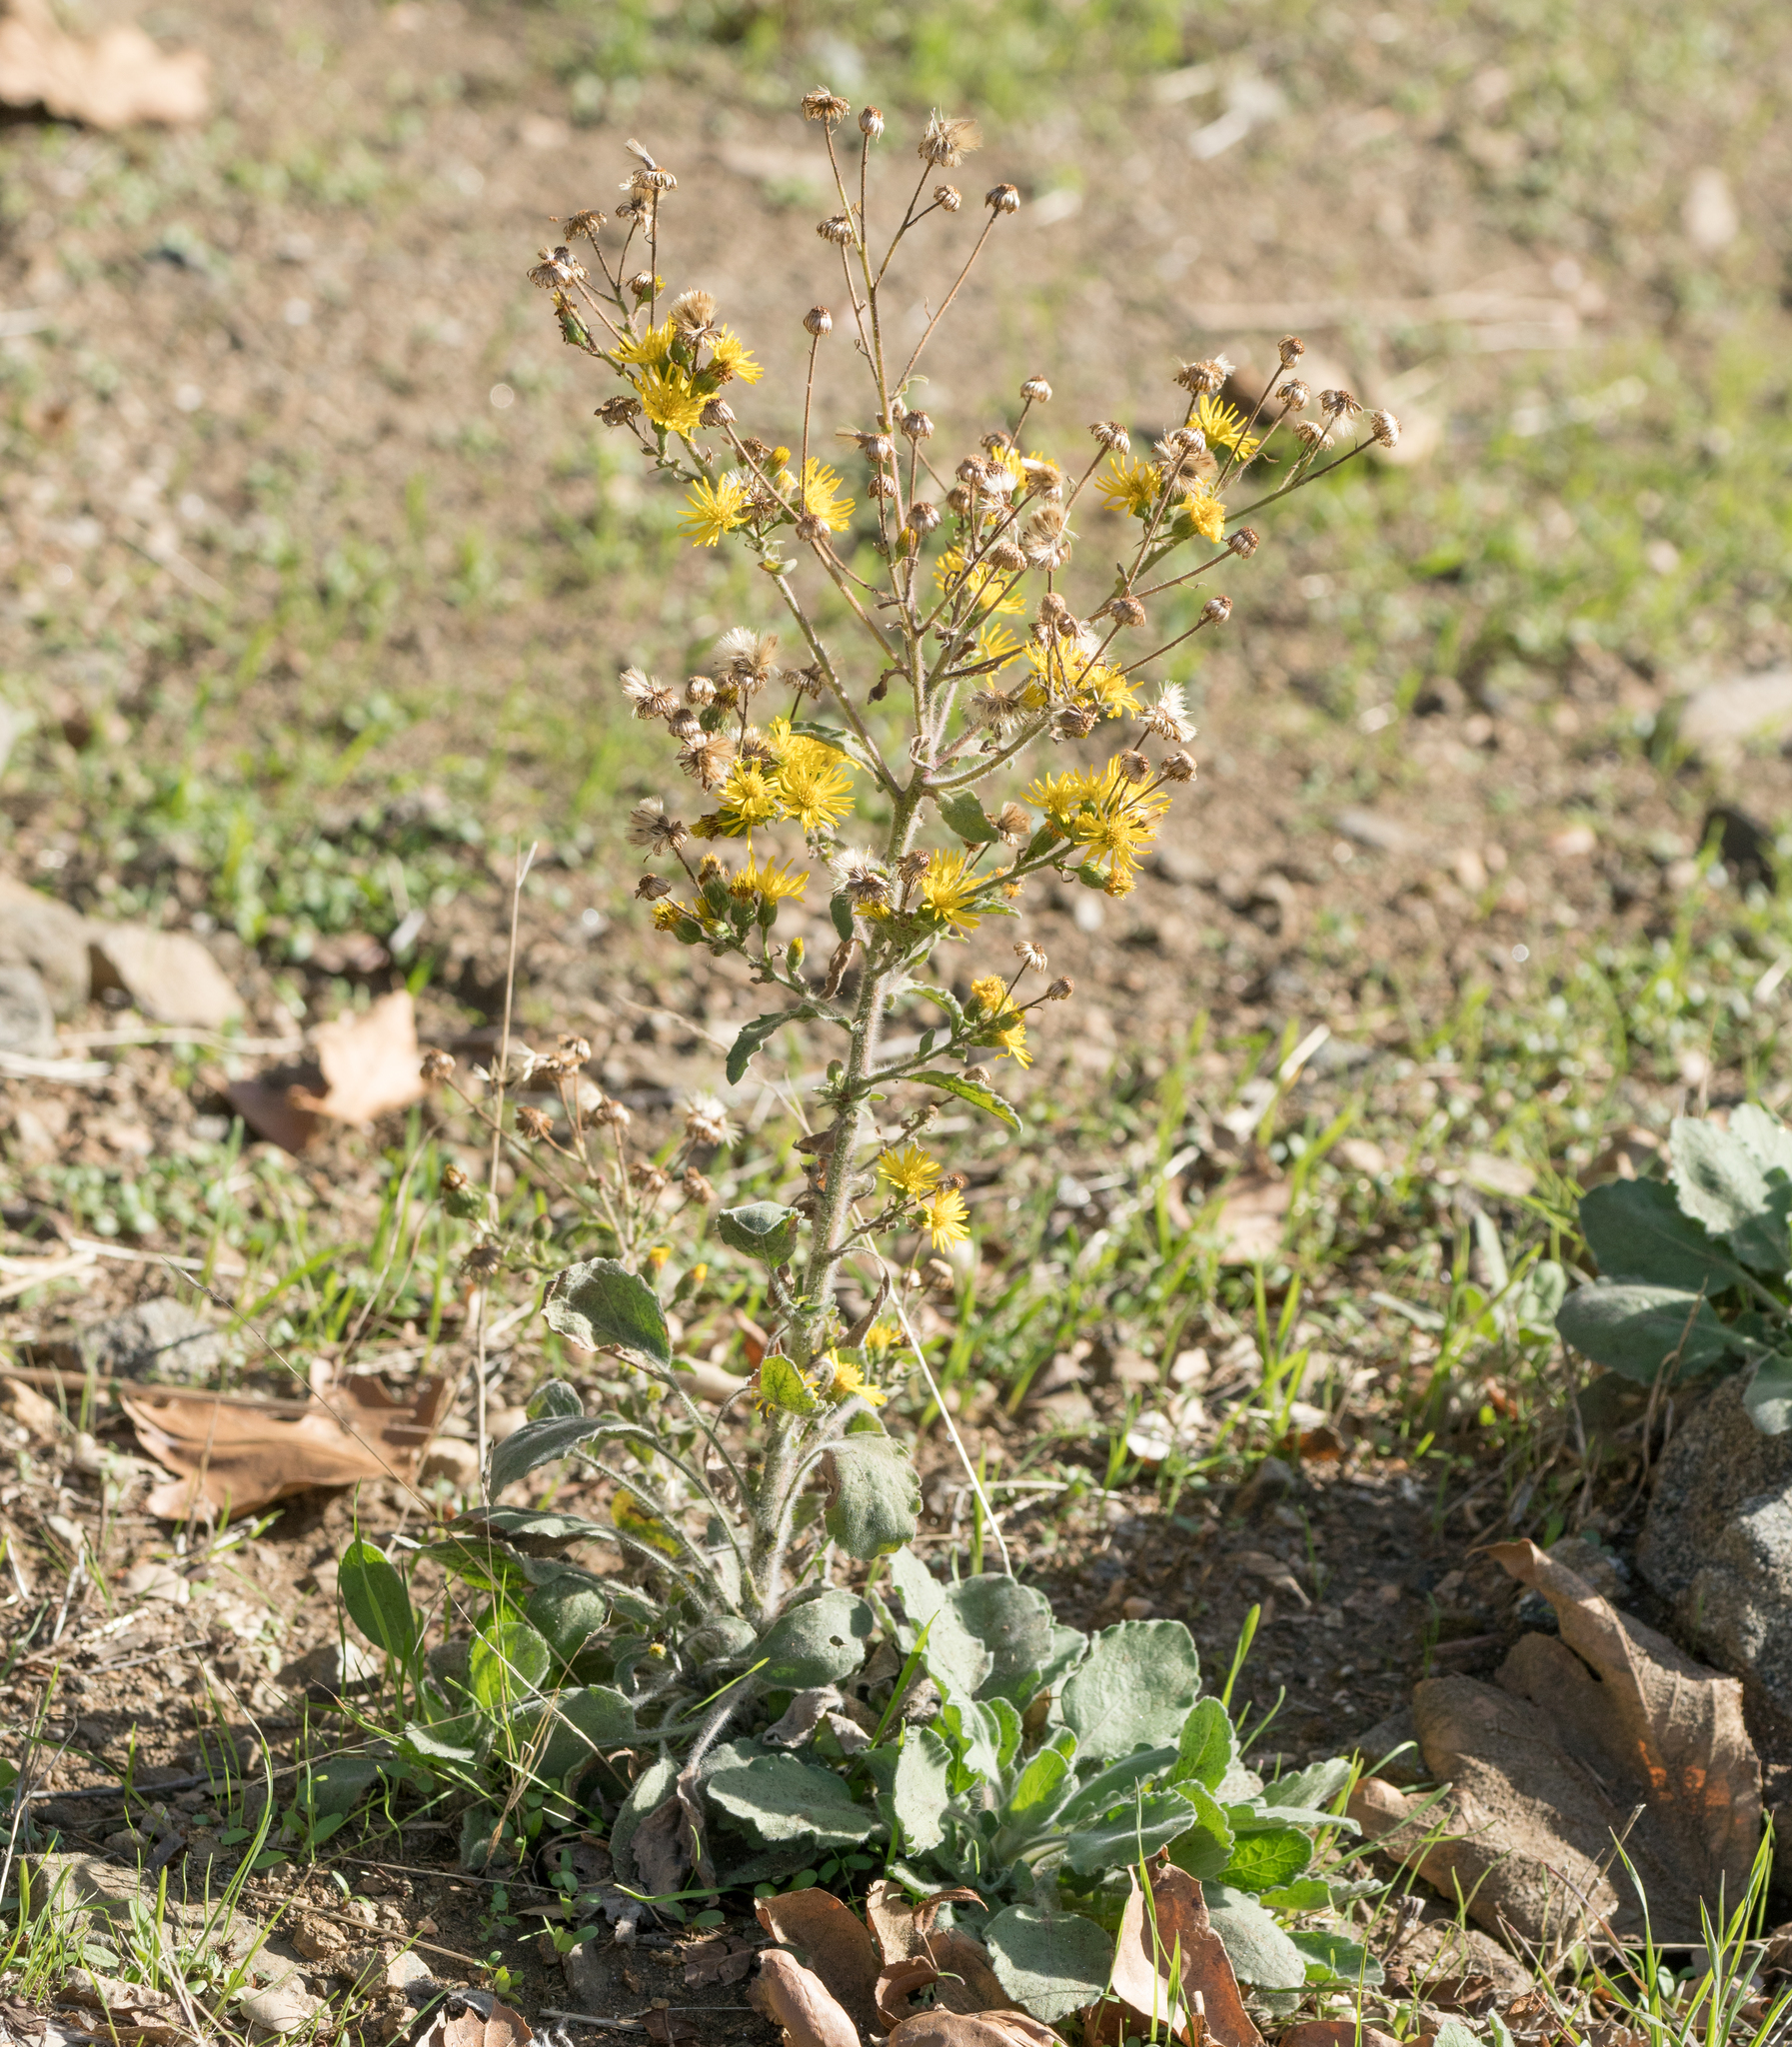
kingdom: Plantae
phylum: Tracheophyta
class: Magnoliopsida
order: Asterales
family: Asteraceae
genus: Heterotheca
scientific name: Heterotheca grandiflora
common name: Telegraphweed
